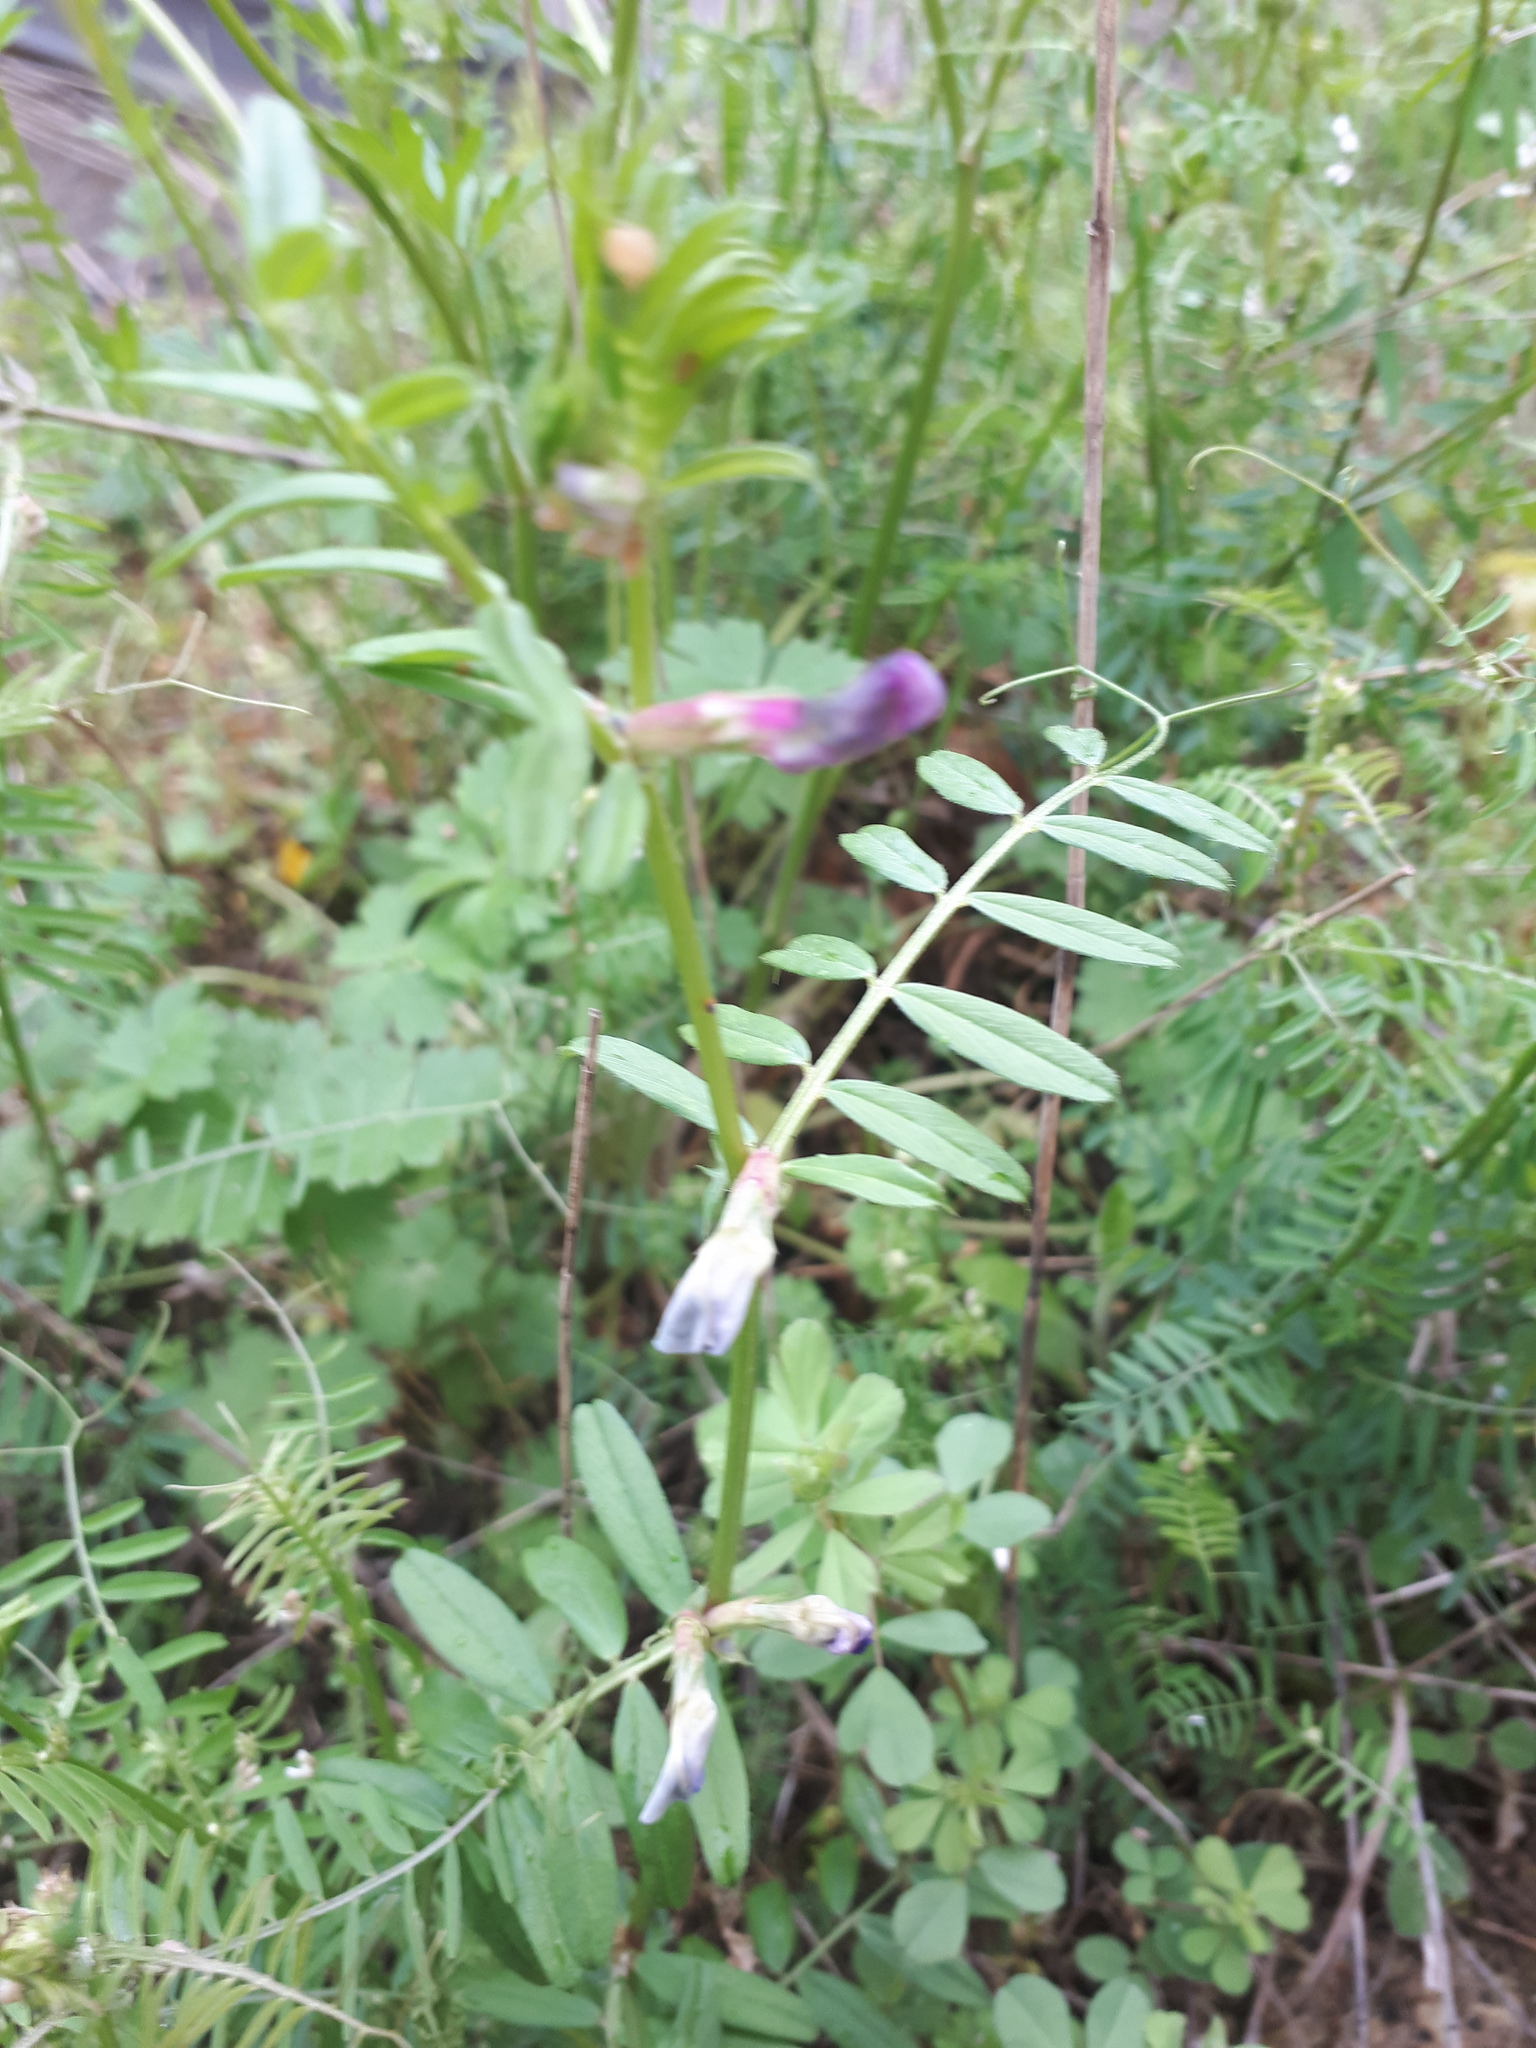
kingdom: Plantae
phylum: Tracheophyta
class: Magnoliopsida
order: Fabales
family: Fabaceae
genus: Vicia
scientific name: Vicia sativa
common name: Garden vetch
